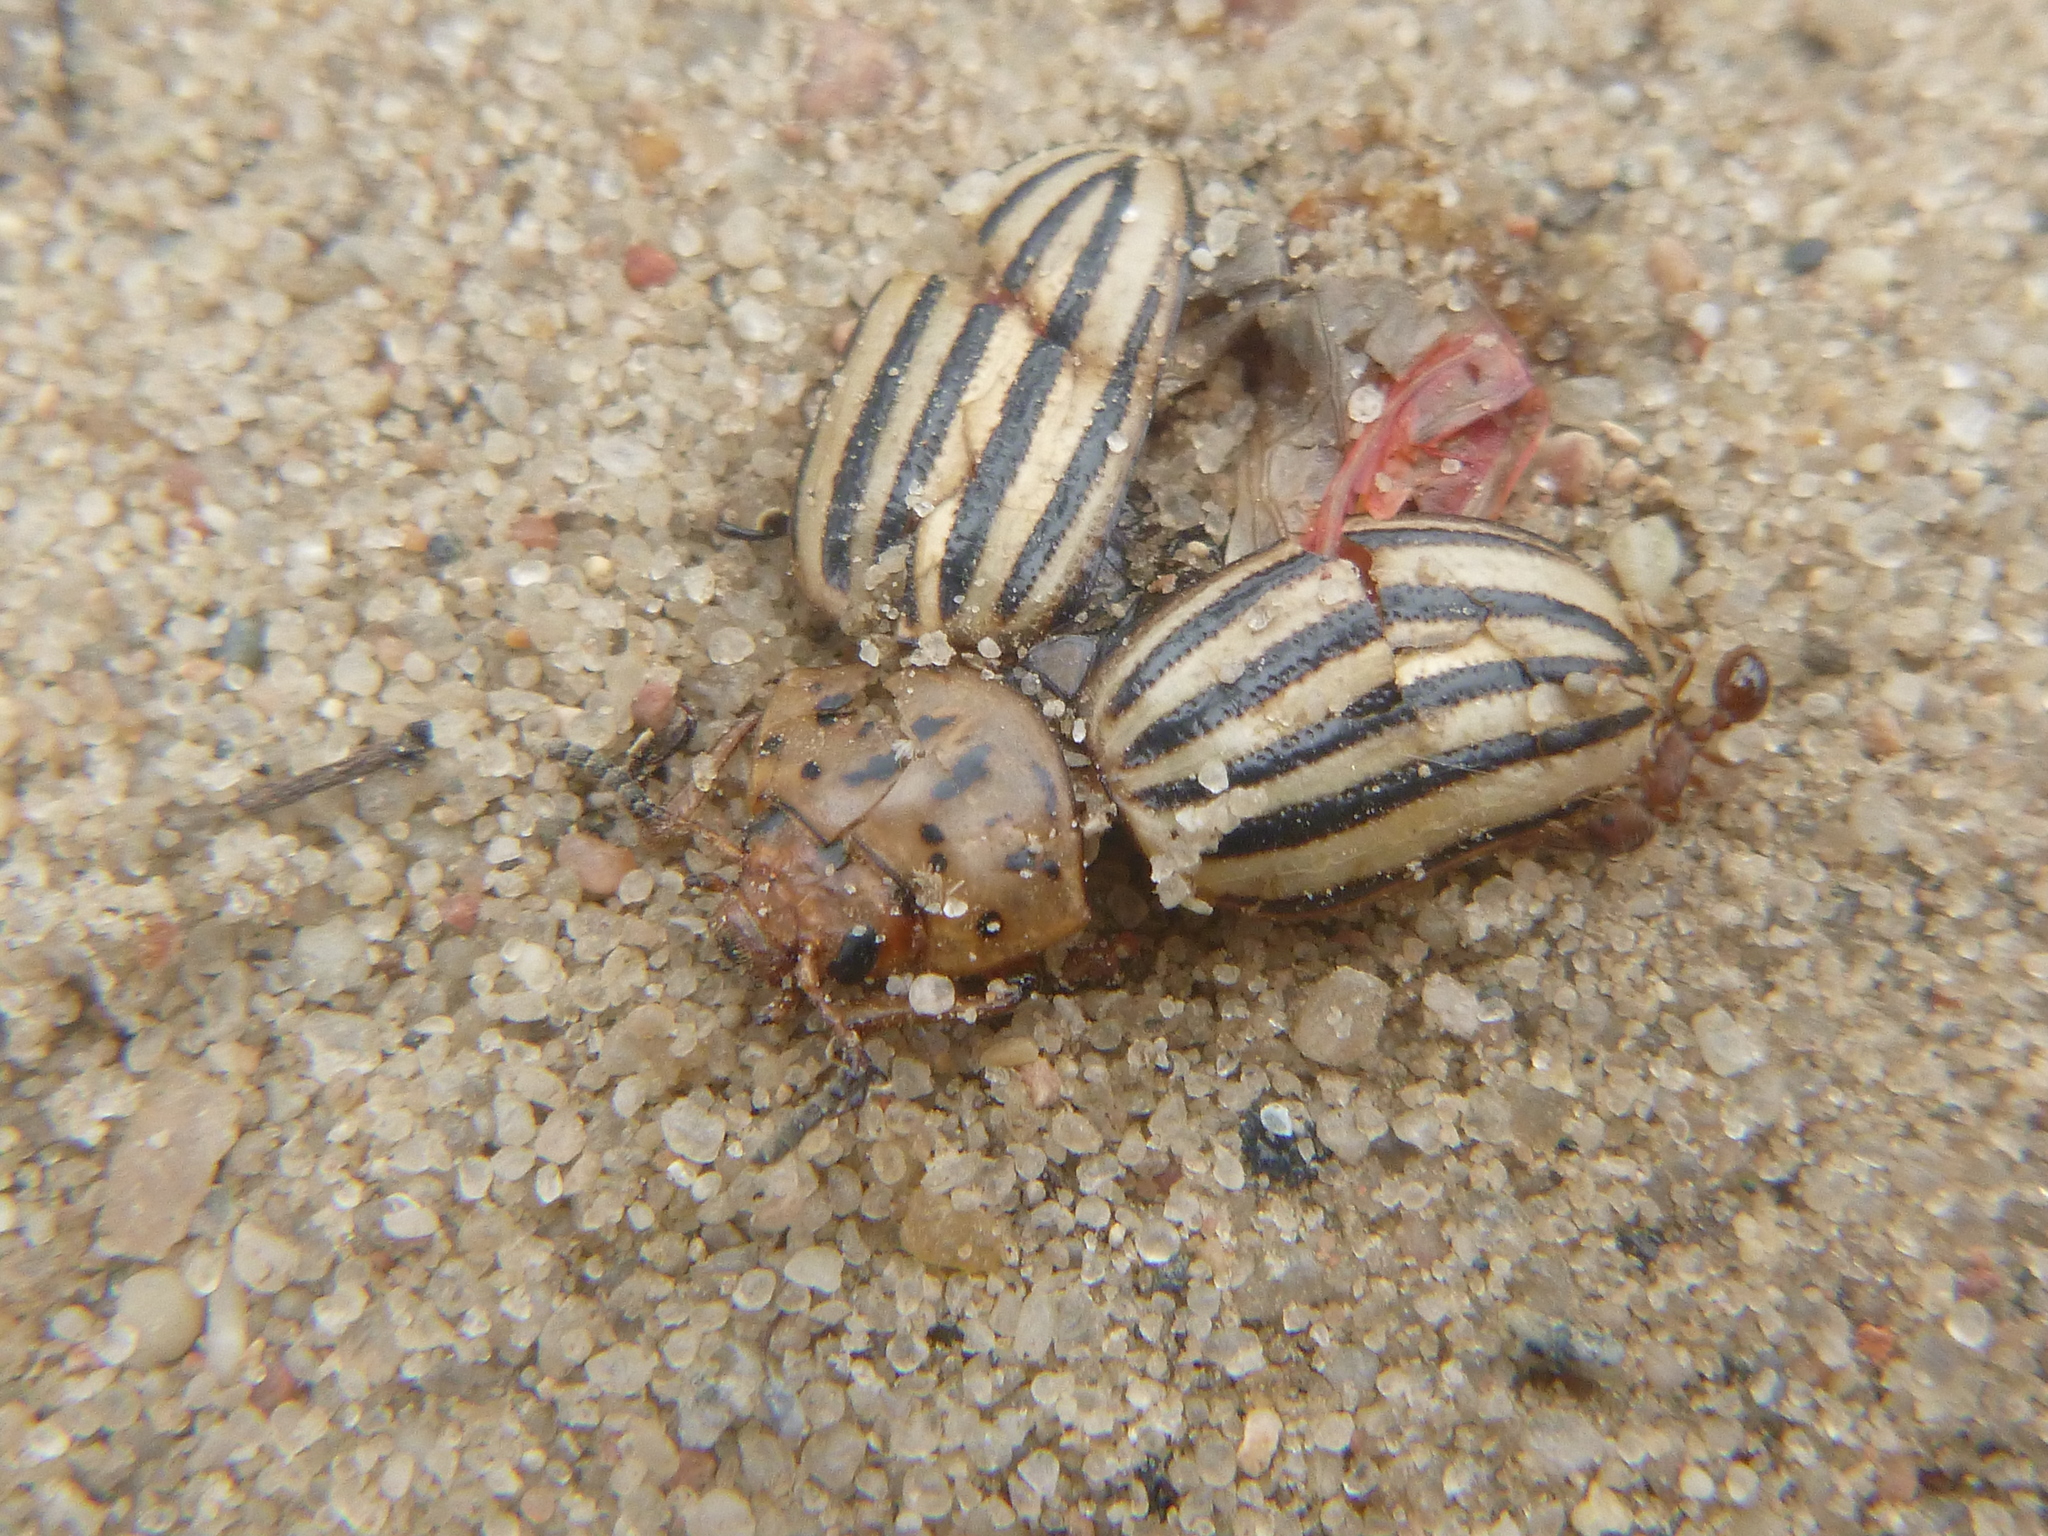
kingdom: Animalia
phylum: Arthropoda
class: Insecta
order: Coleoptera
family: Chrysomelidae
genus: Leptinotarsa
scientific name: Leptinotarsa decemlineata
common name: Colorado potato beetle
